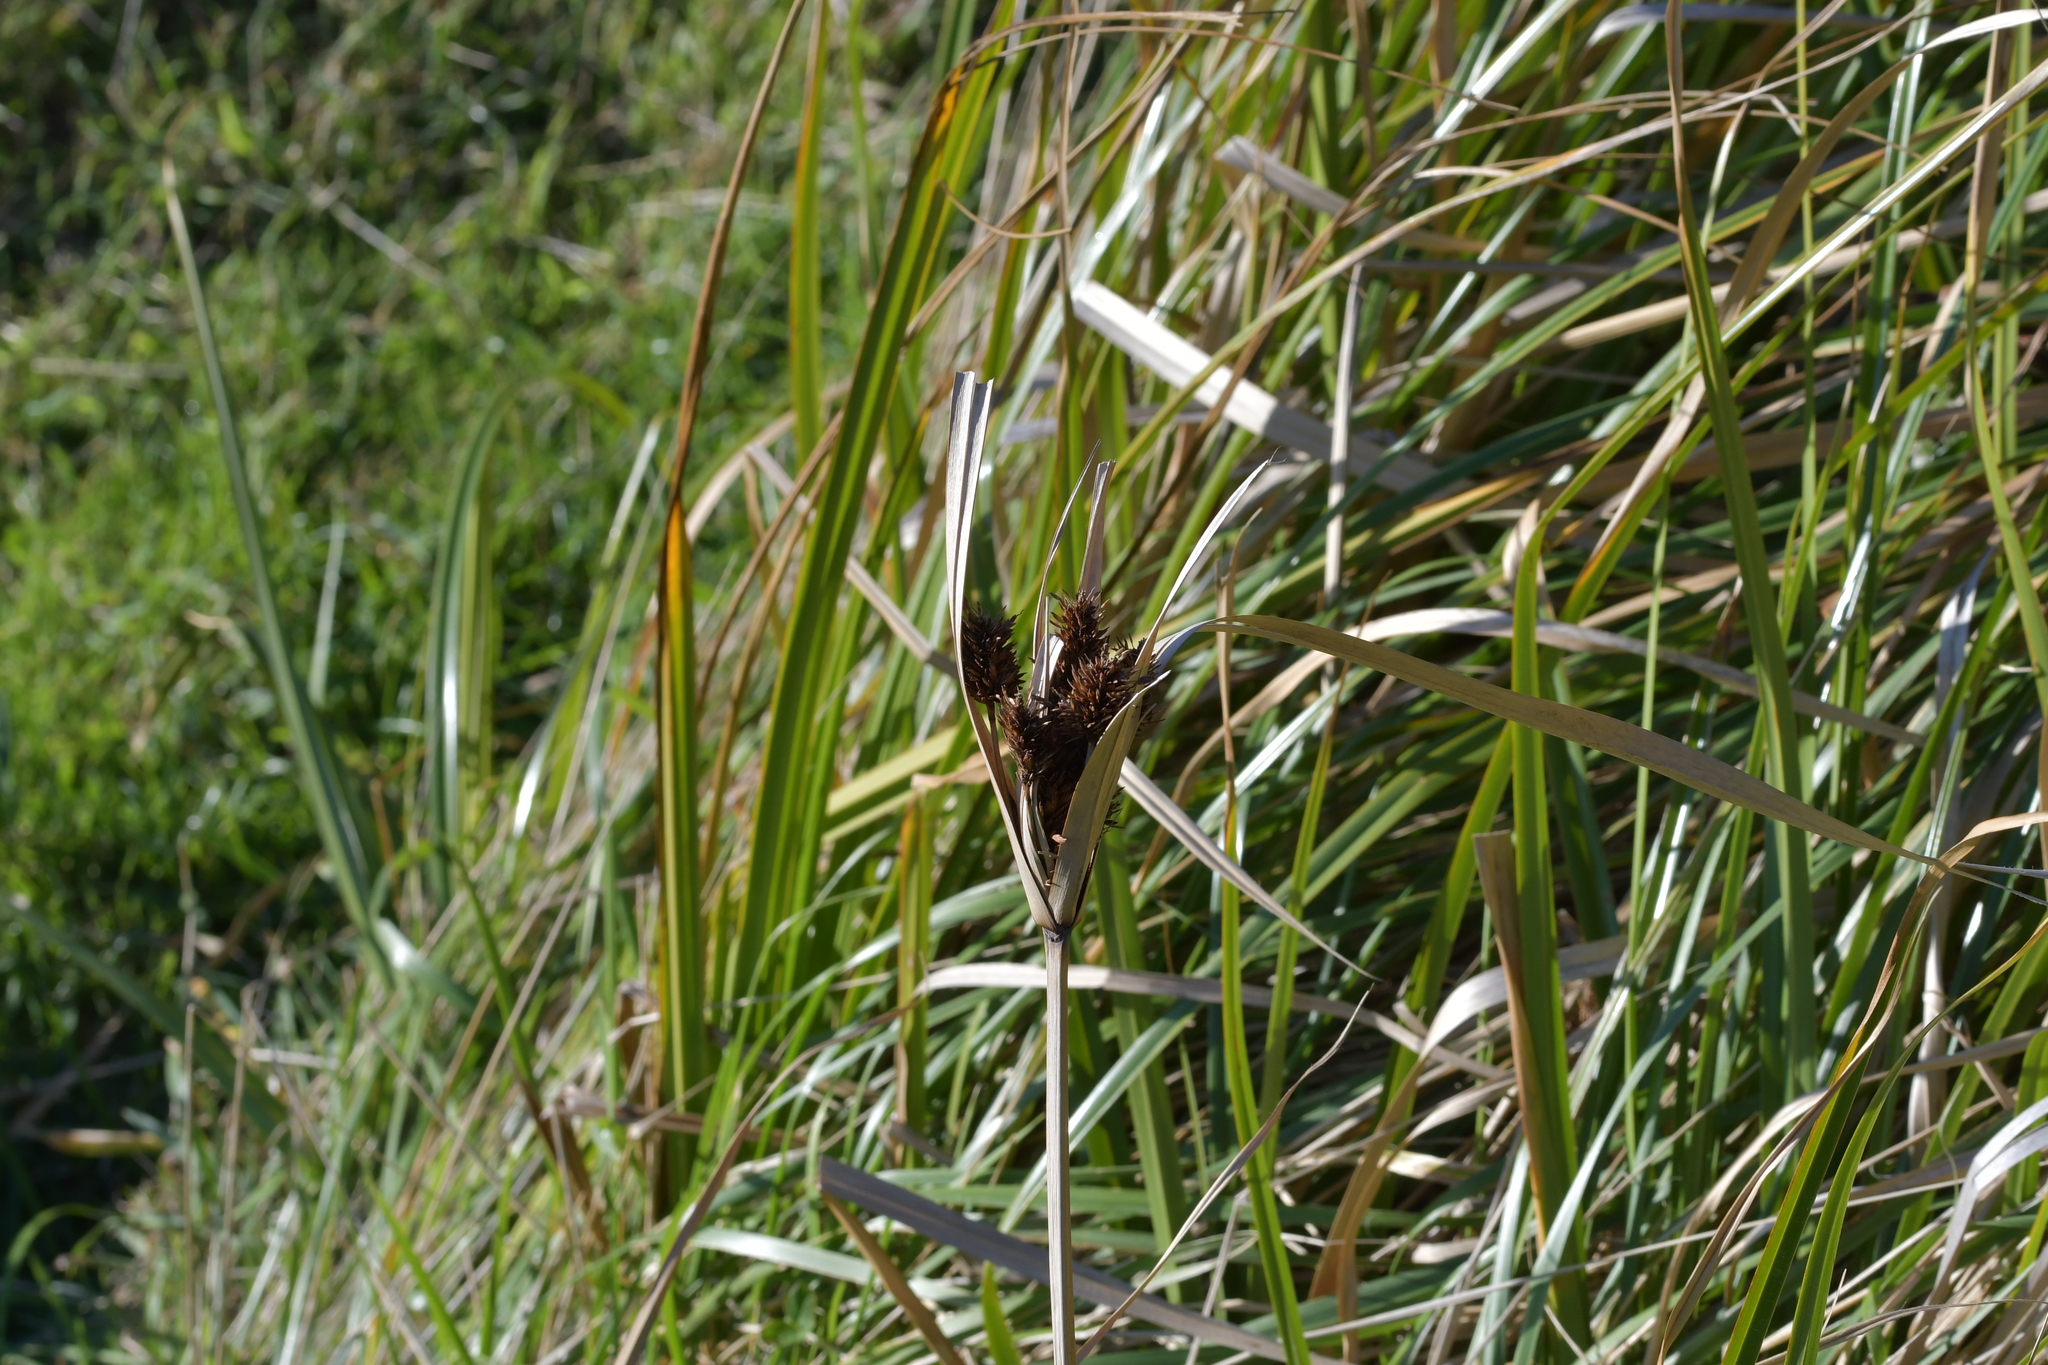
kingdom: Plantae
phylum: Tracheophyta
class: Liliopsida
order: Poales
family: Cyperaceae
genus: Cyperus
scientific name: Cyperus ustulatus
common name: Giant umbrella-sedge
